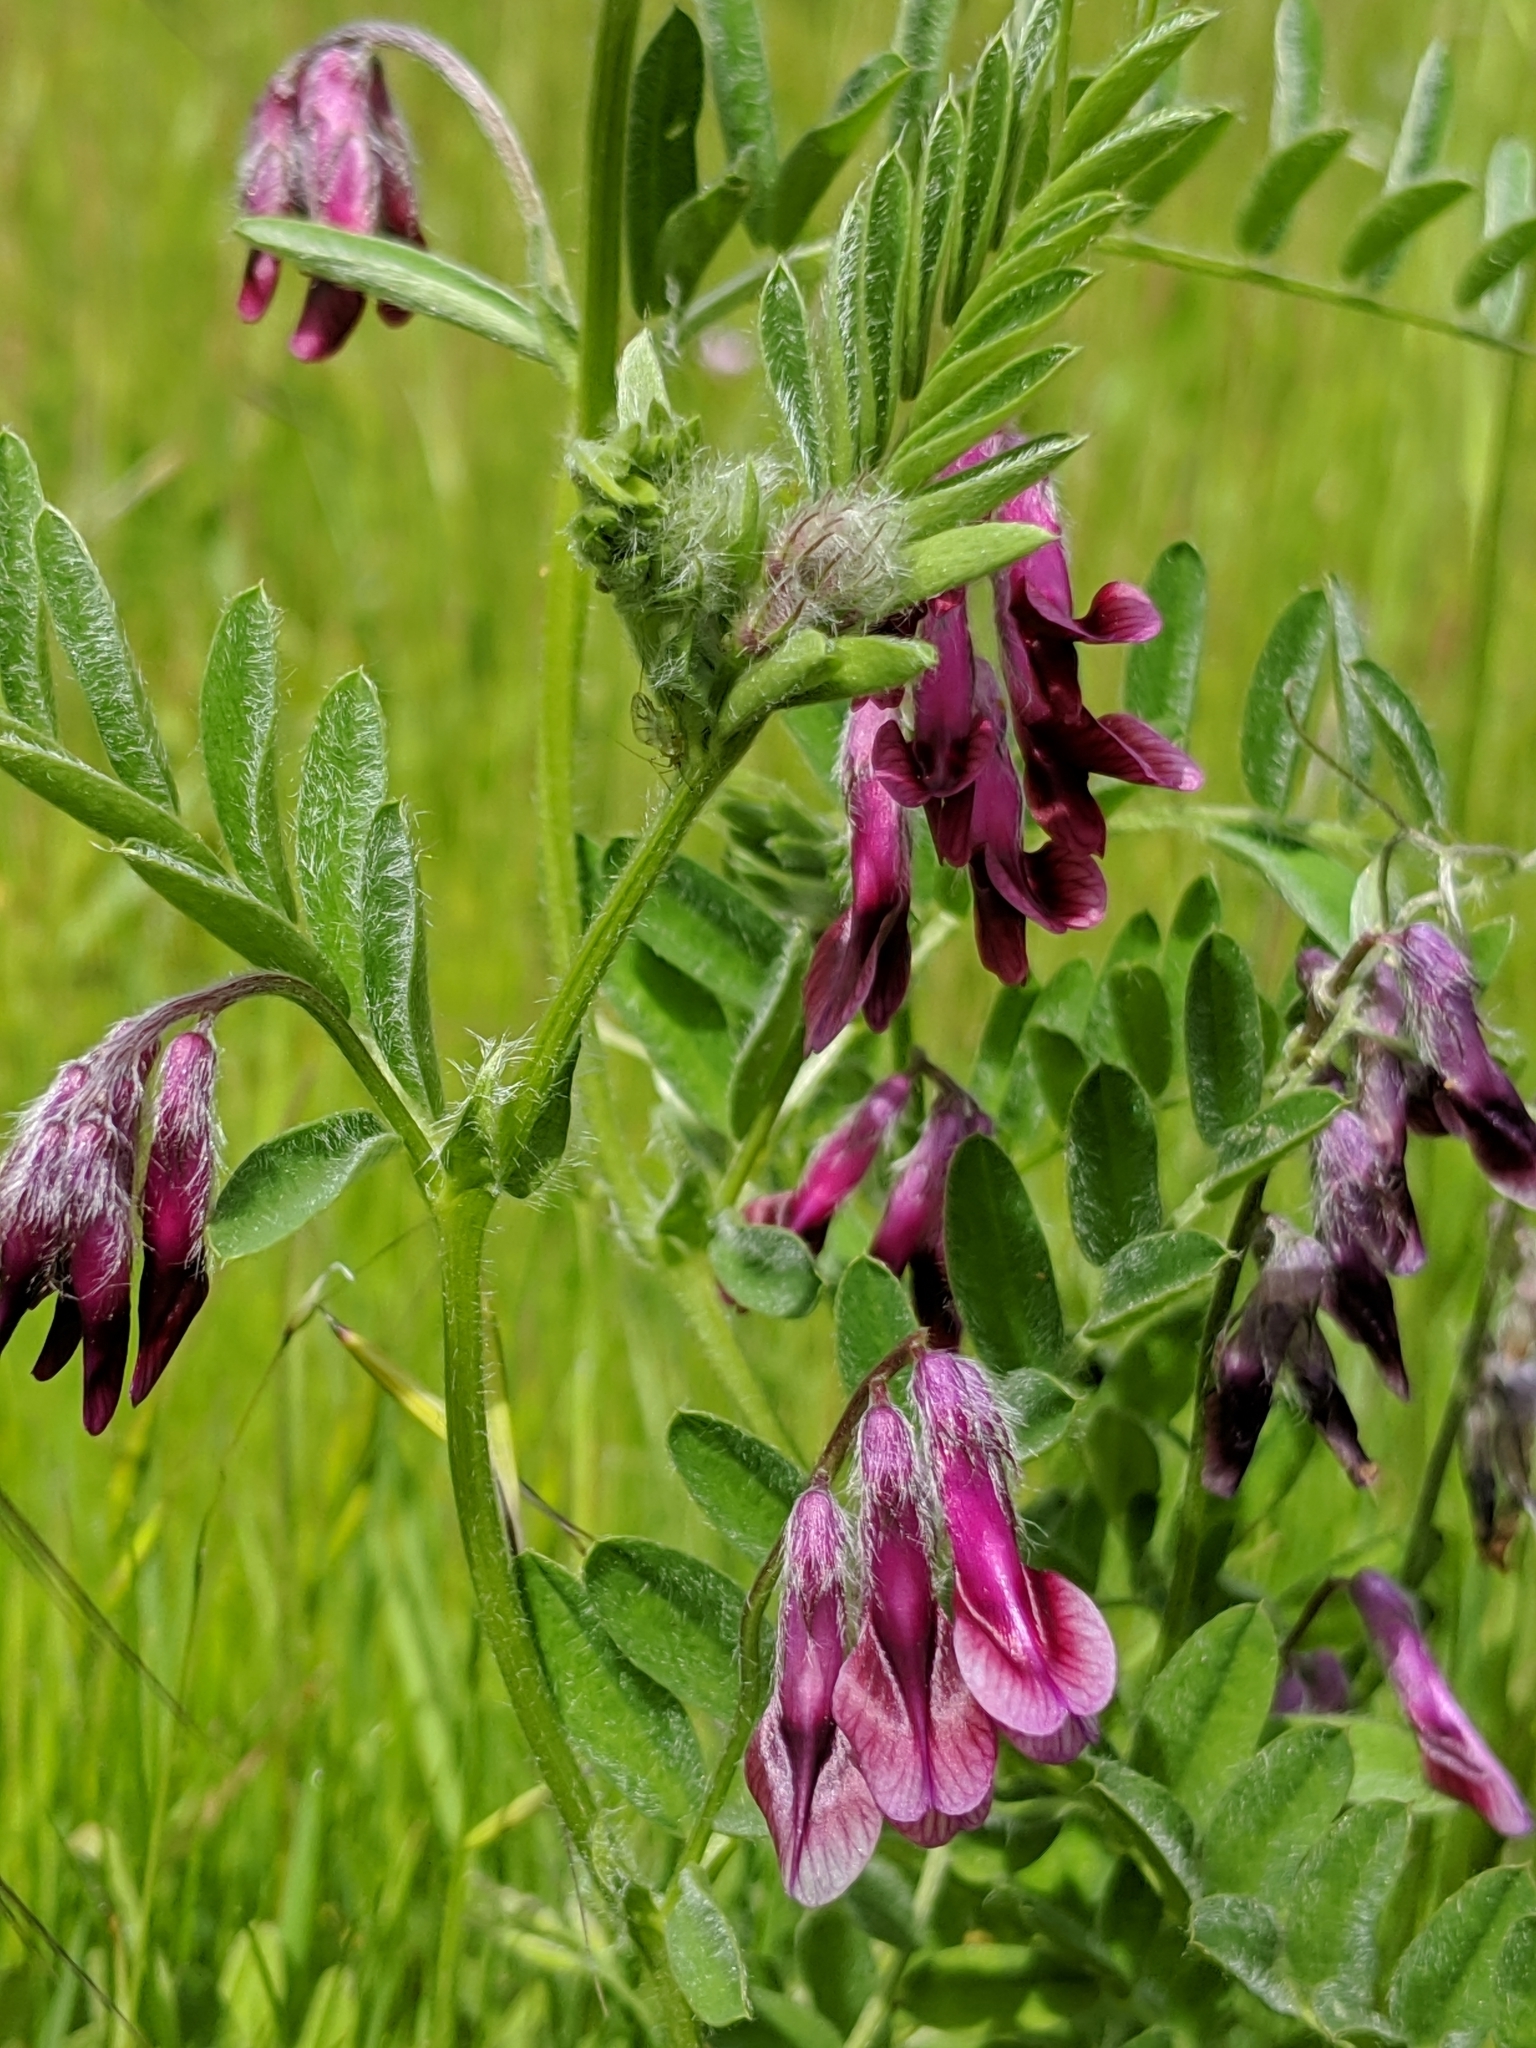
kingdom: Plantae
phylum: Tracheophyta
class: Magnoliopsida
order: Fabales
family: Fabaceae
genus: Vicia
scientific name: Vicia benghalensis
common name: Purple vetch
